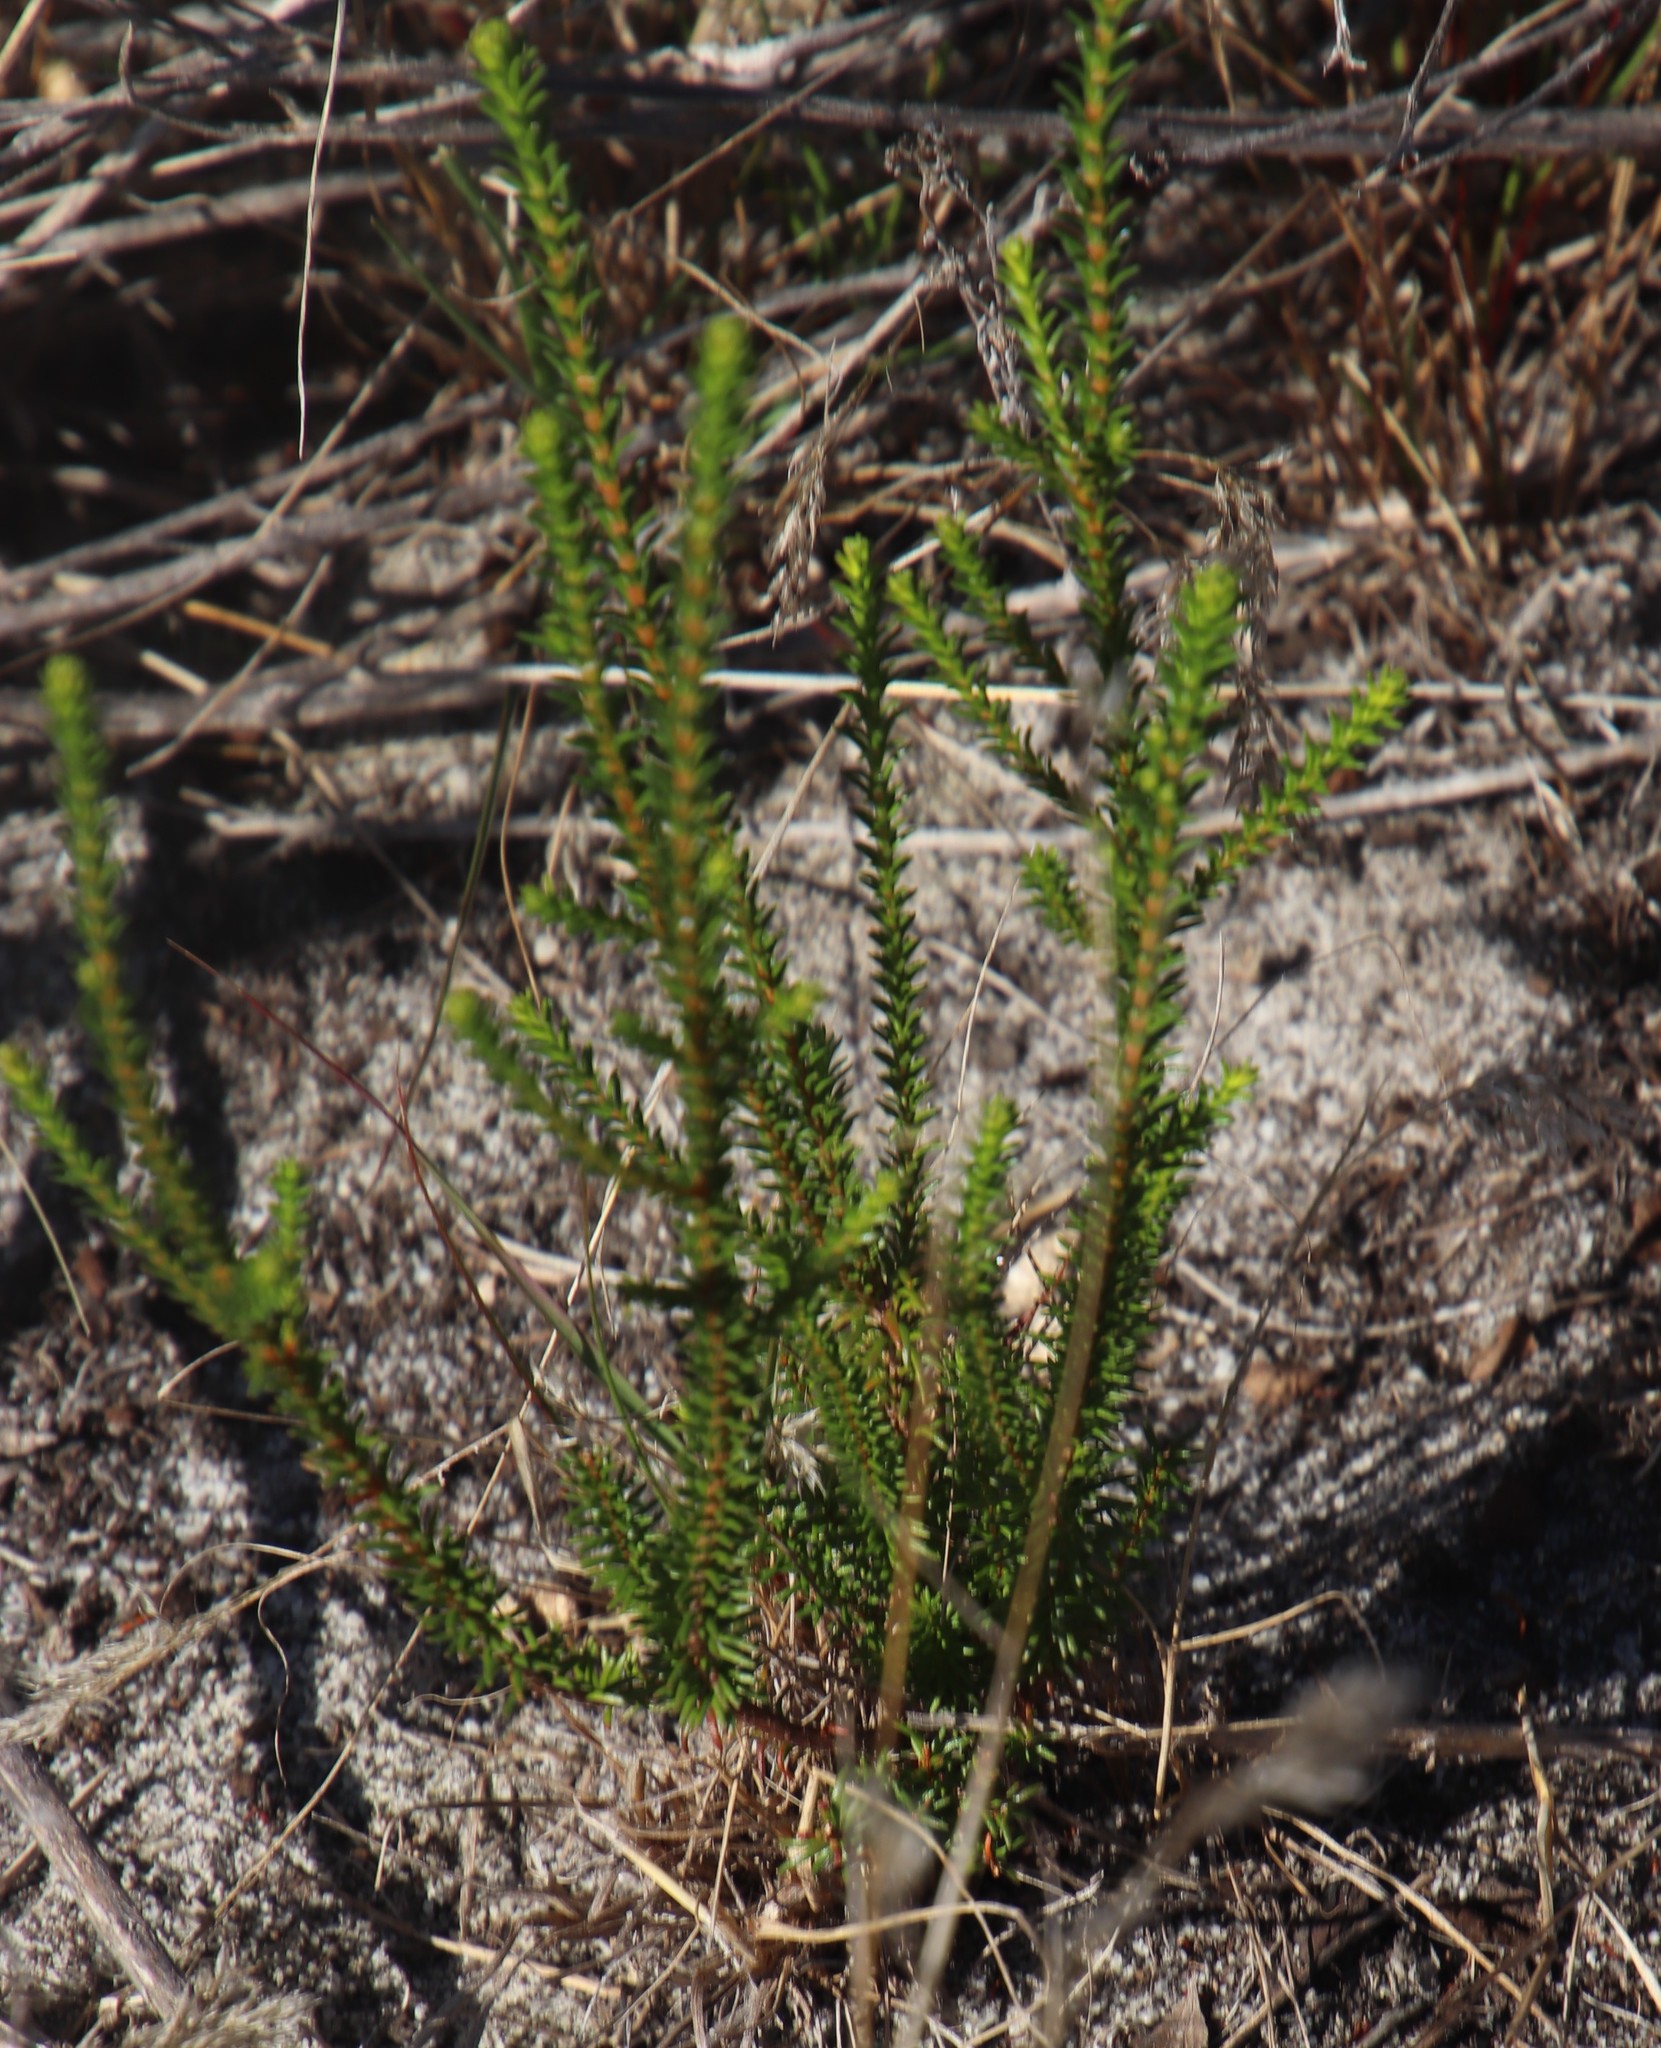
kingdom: Plantae
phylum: Tracheophyta
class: Magnoliopsida
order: Malvales
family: Thymelaeaceae
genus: Passerina
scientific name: Passerina corymbosa
